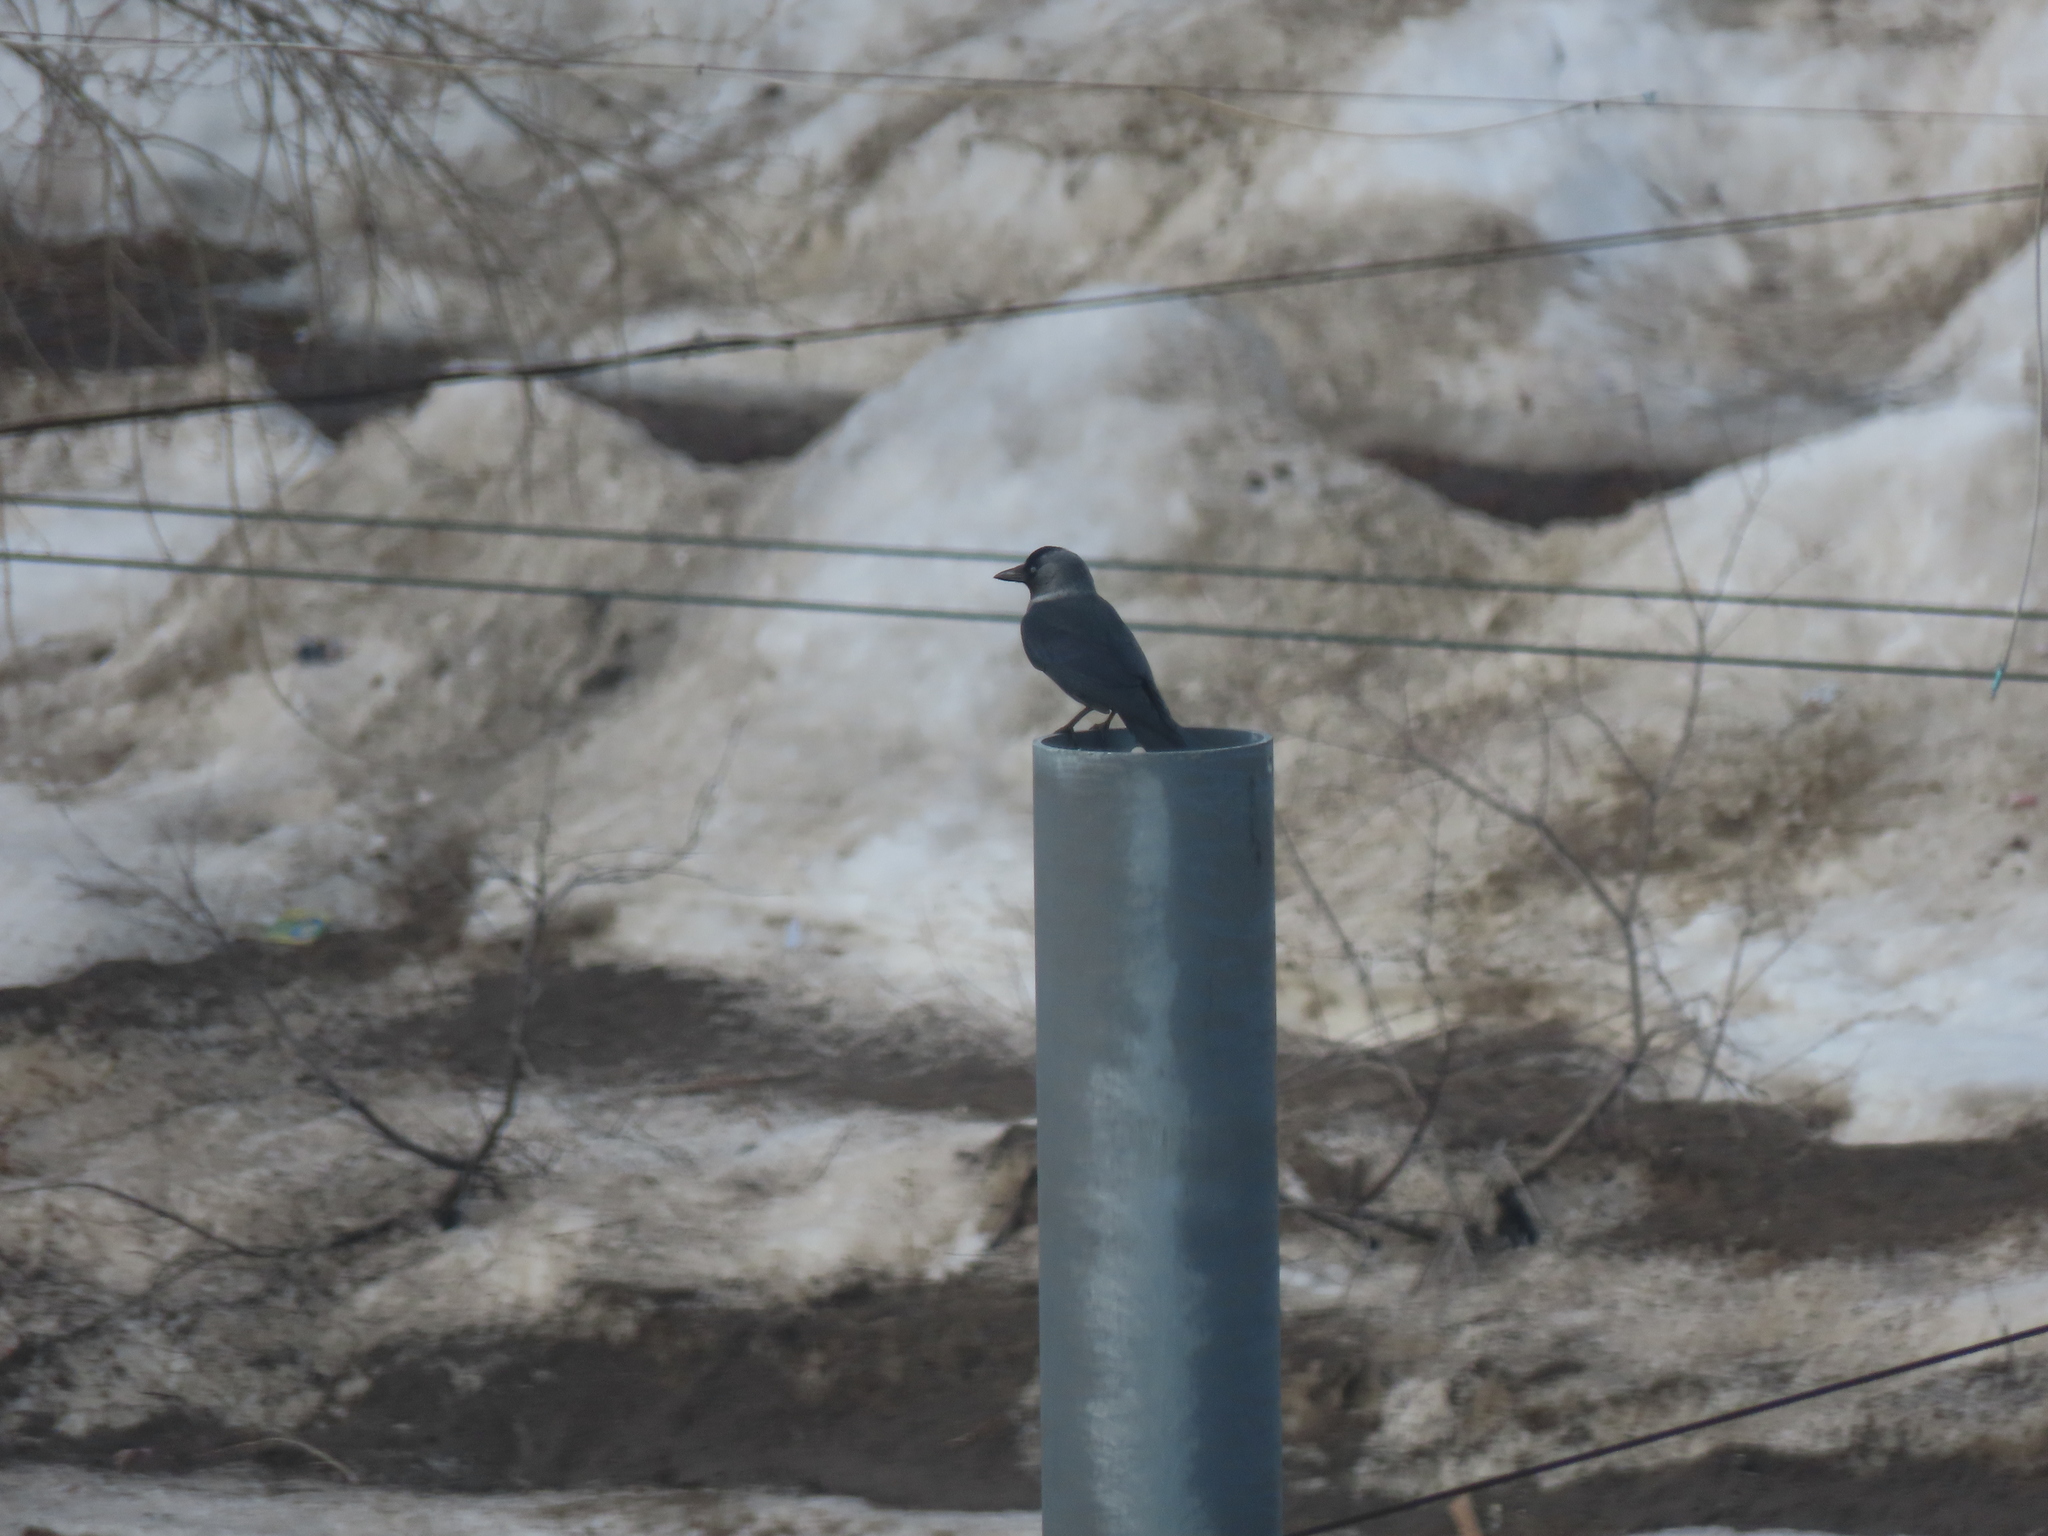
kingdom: Animalia
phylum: Chordata
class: Aves
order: Passeriformes
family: Corvidae
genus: Coloeus
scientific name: Coloeus monedula
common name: Western jackdaw
